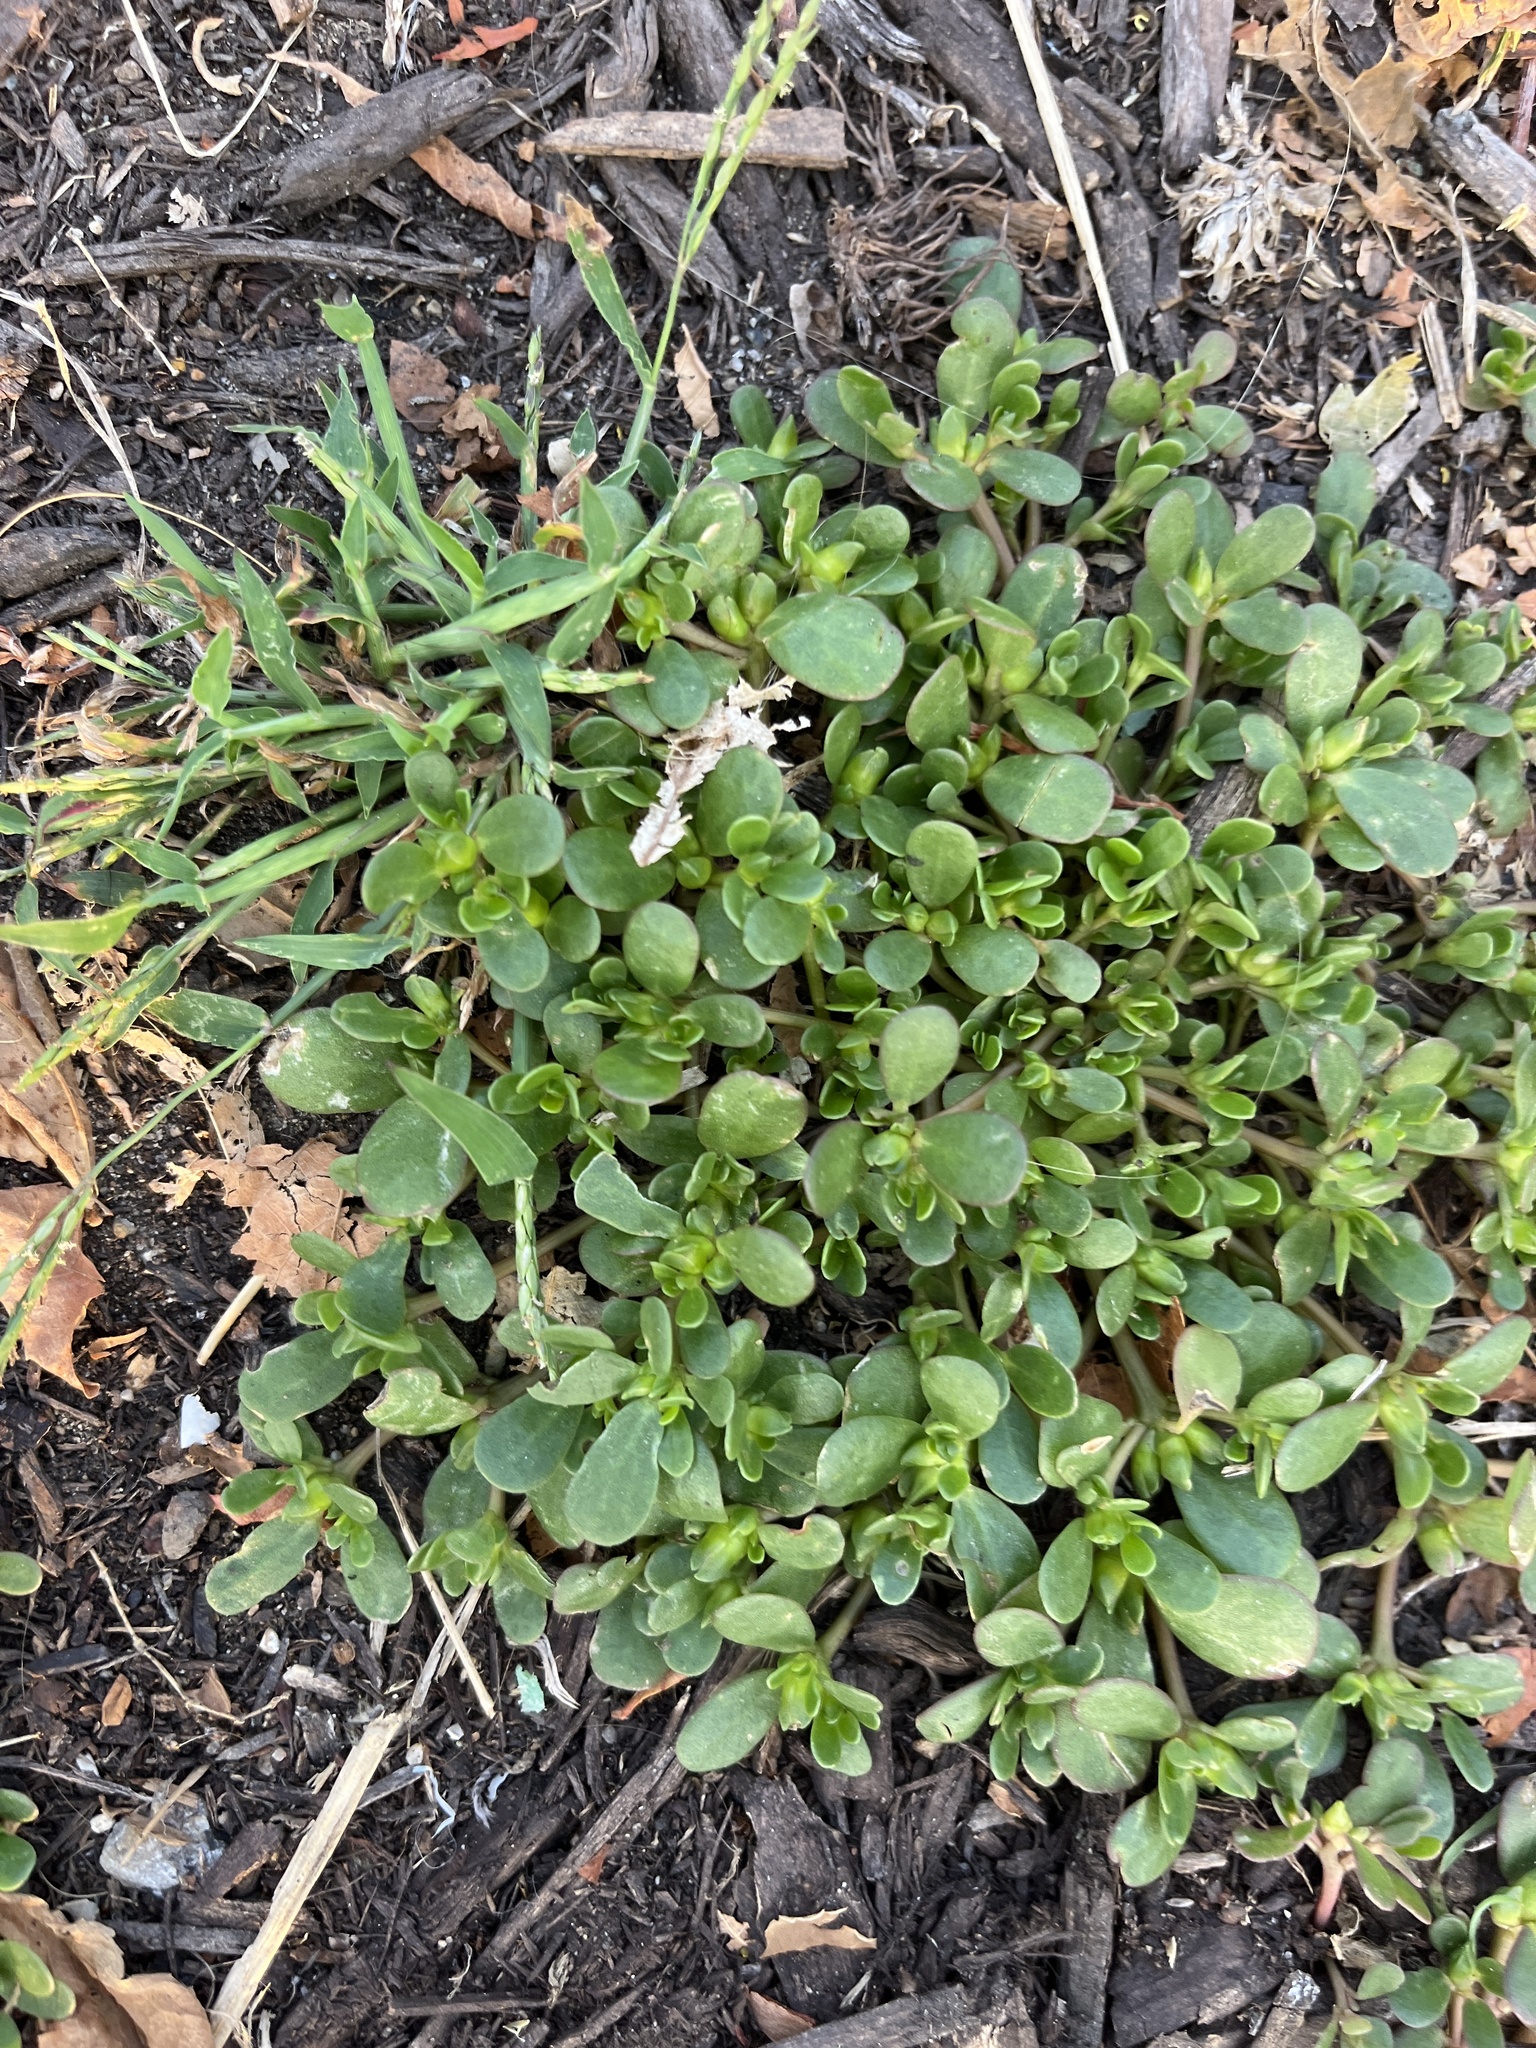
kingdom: Plantae
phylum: Tracheophyta
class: Magnoliopsida
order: Caryophyllales
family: Portulacaceae
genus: Portulaca
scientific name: Portulaca oleracea
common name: Common purslane
